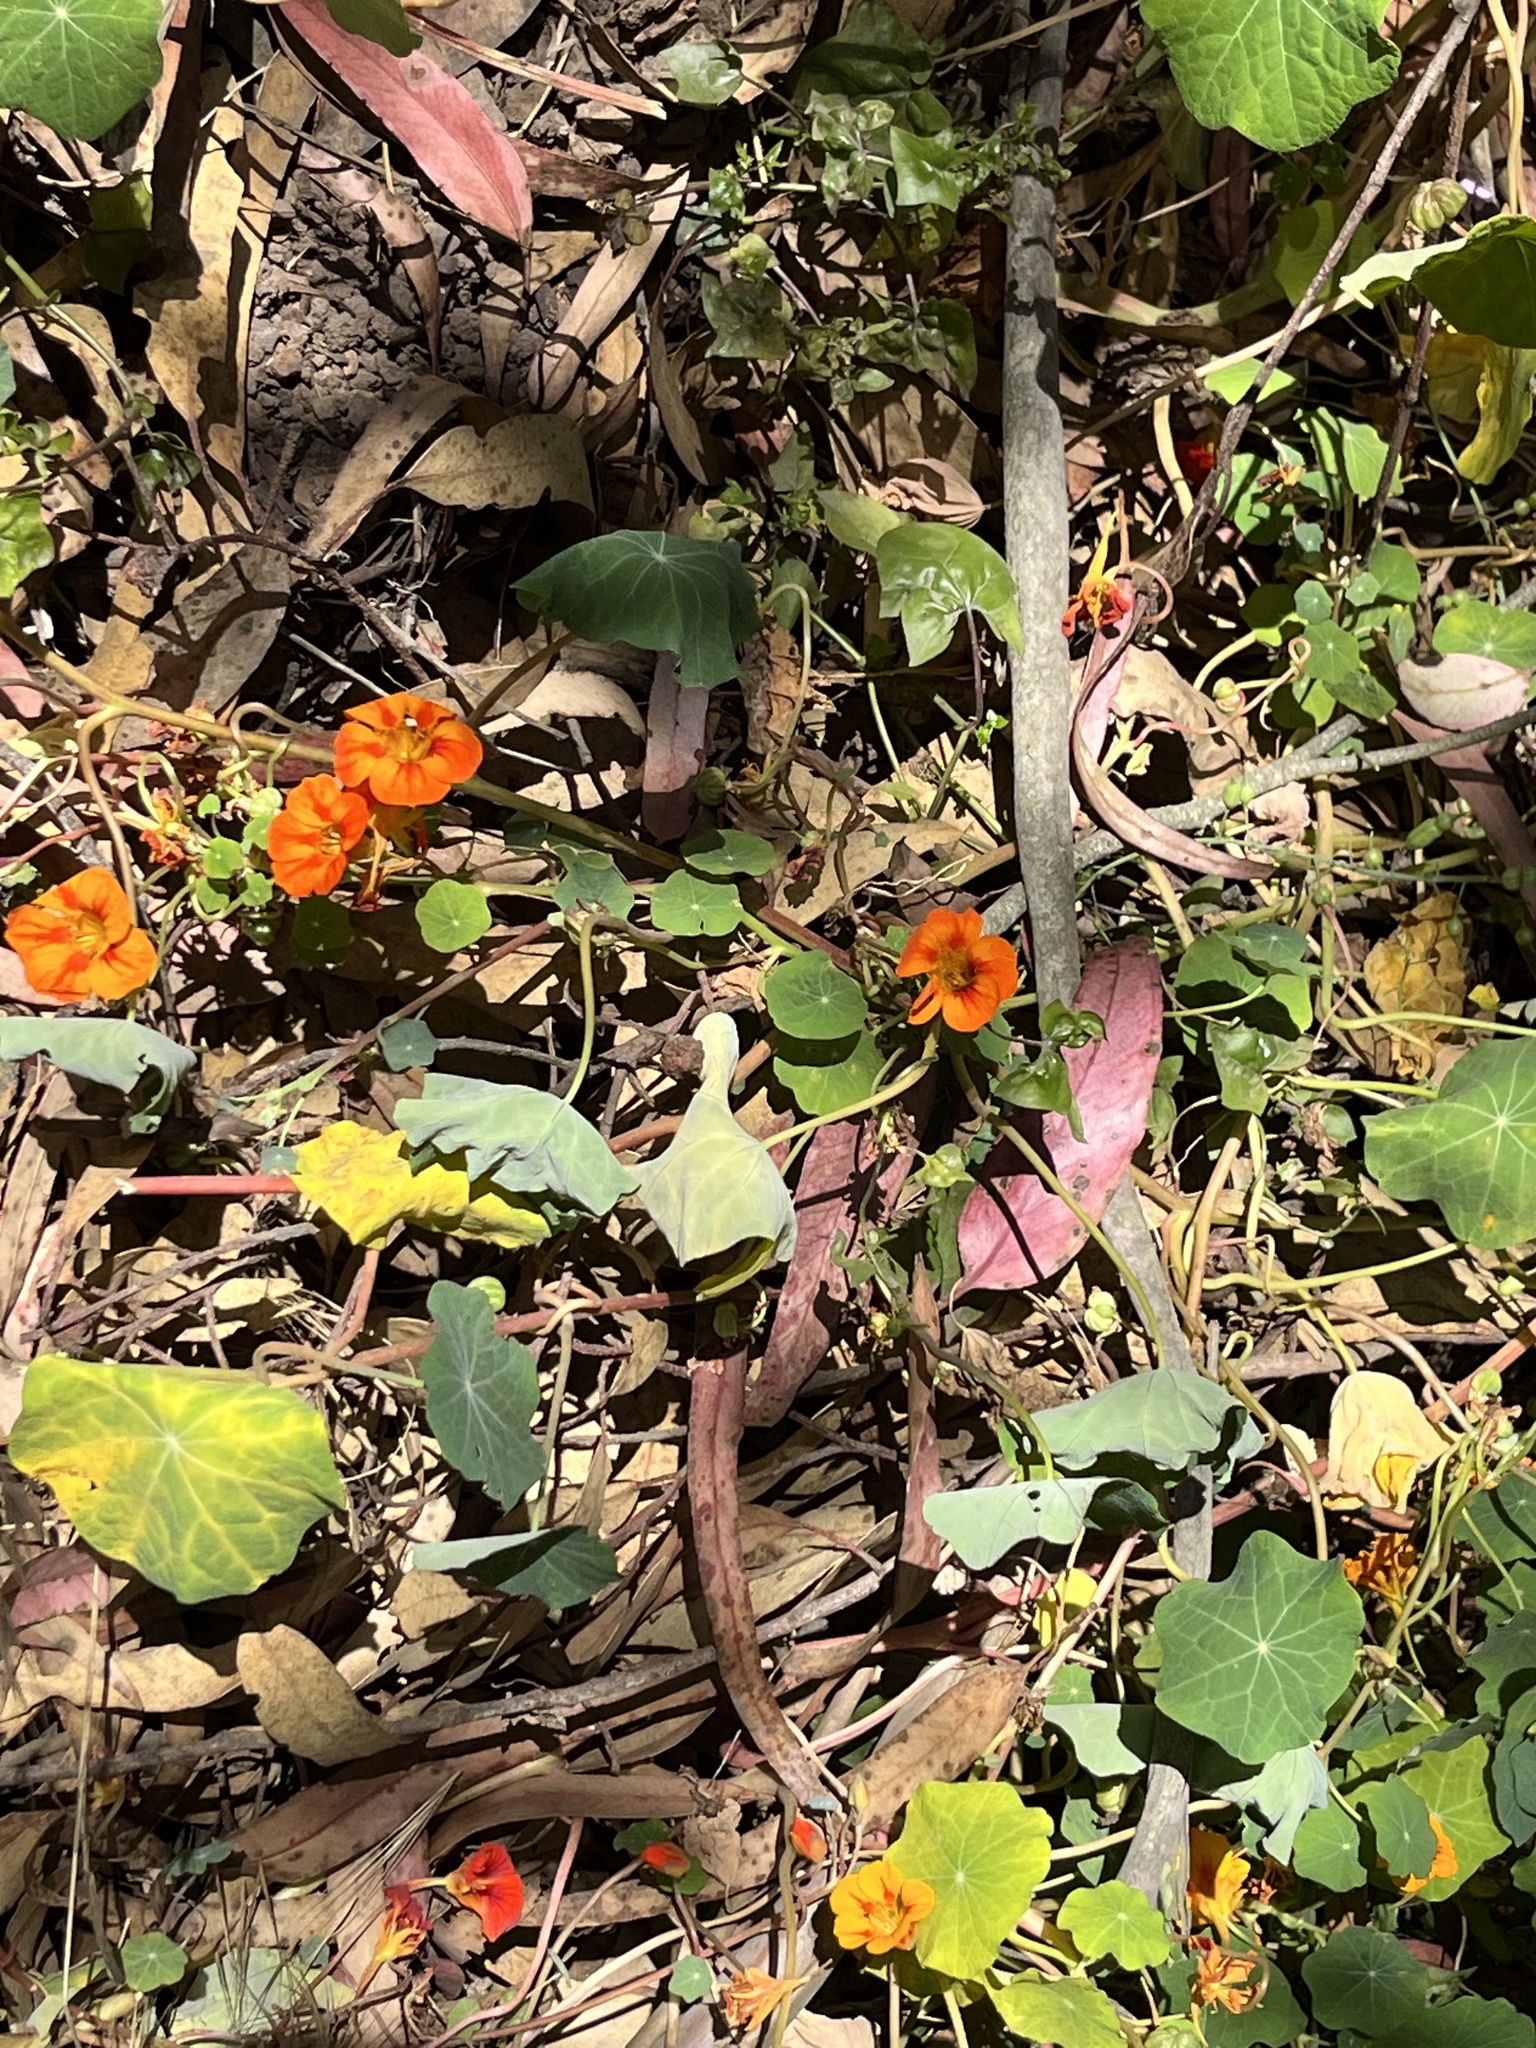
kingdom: Plantae
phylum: Tracheophyta
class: Magnoliopsida
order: Brassicales
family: Tropaeolaceae
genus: Tropaeolum
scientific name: Tropaeolum majus
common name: Nasturtium
